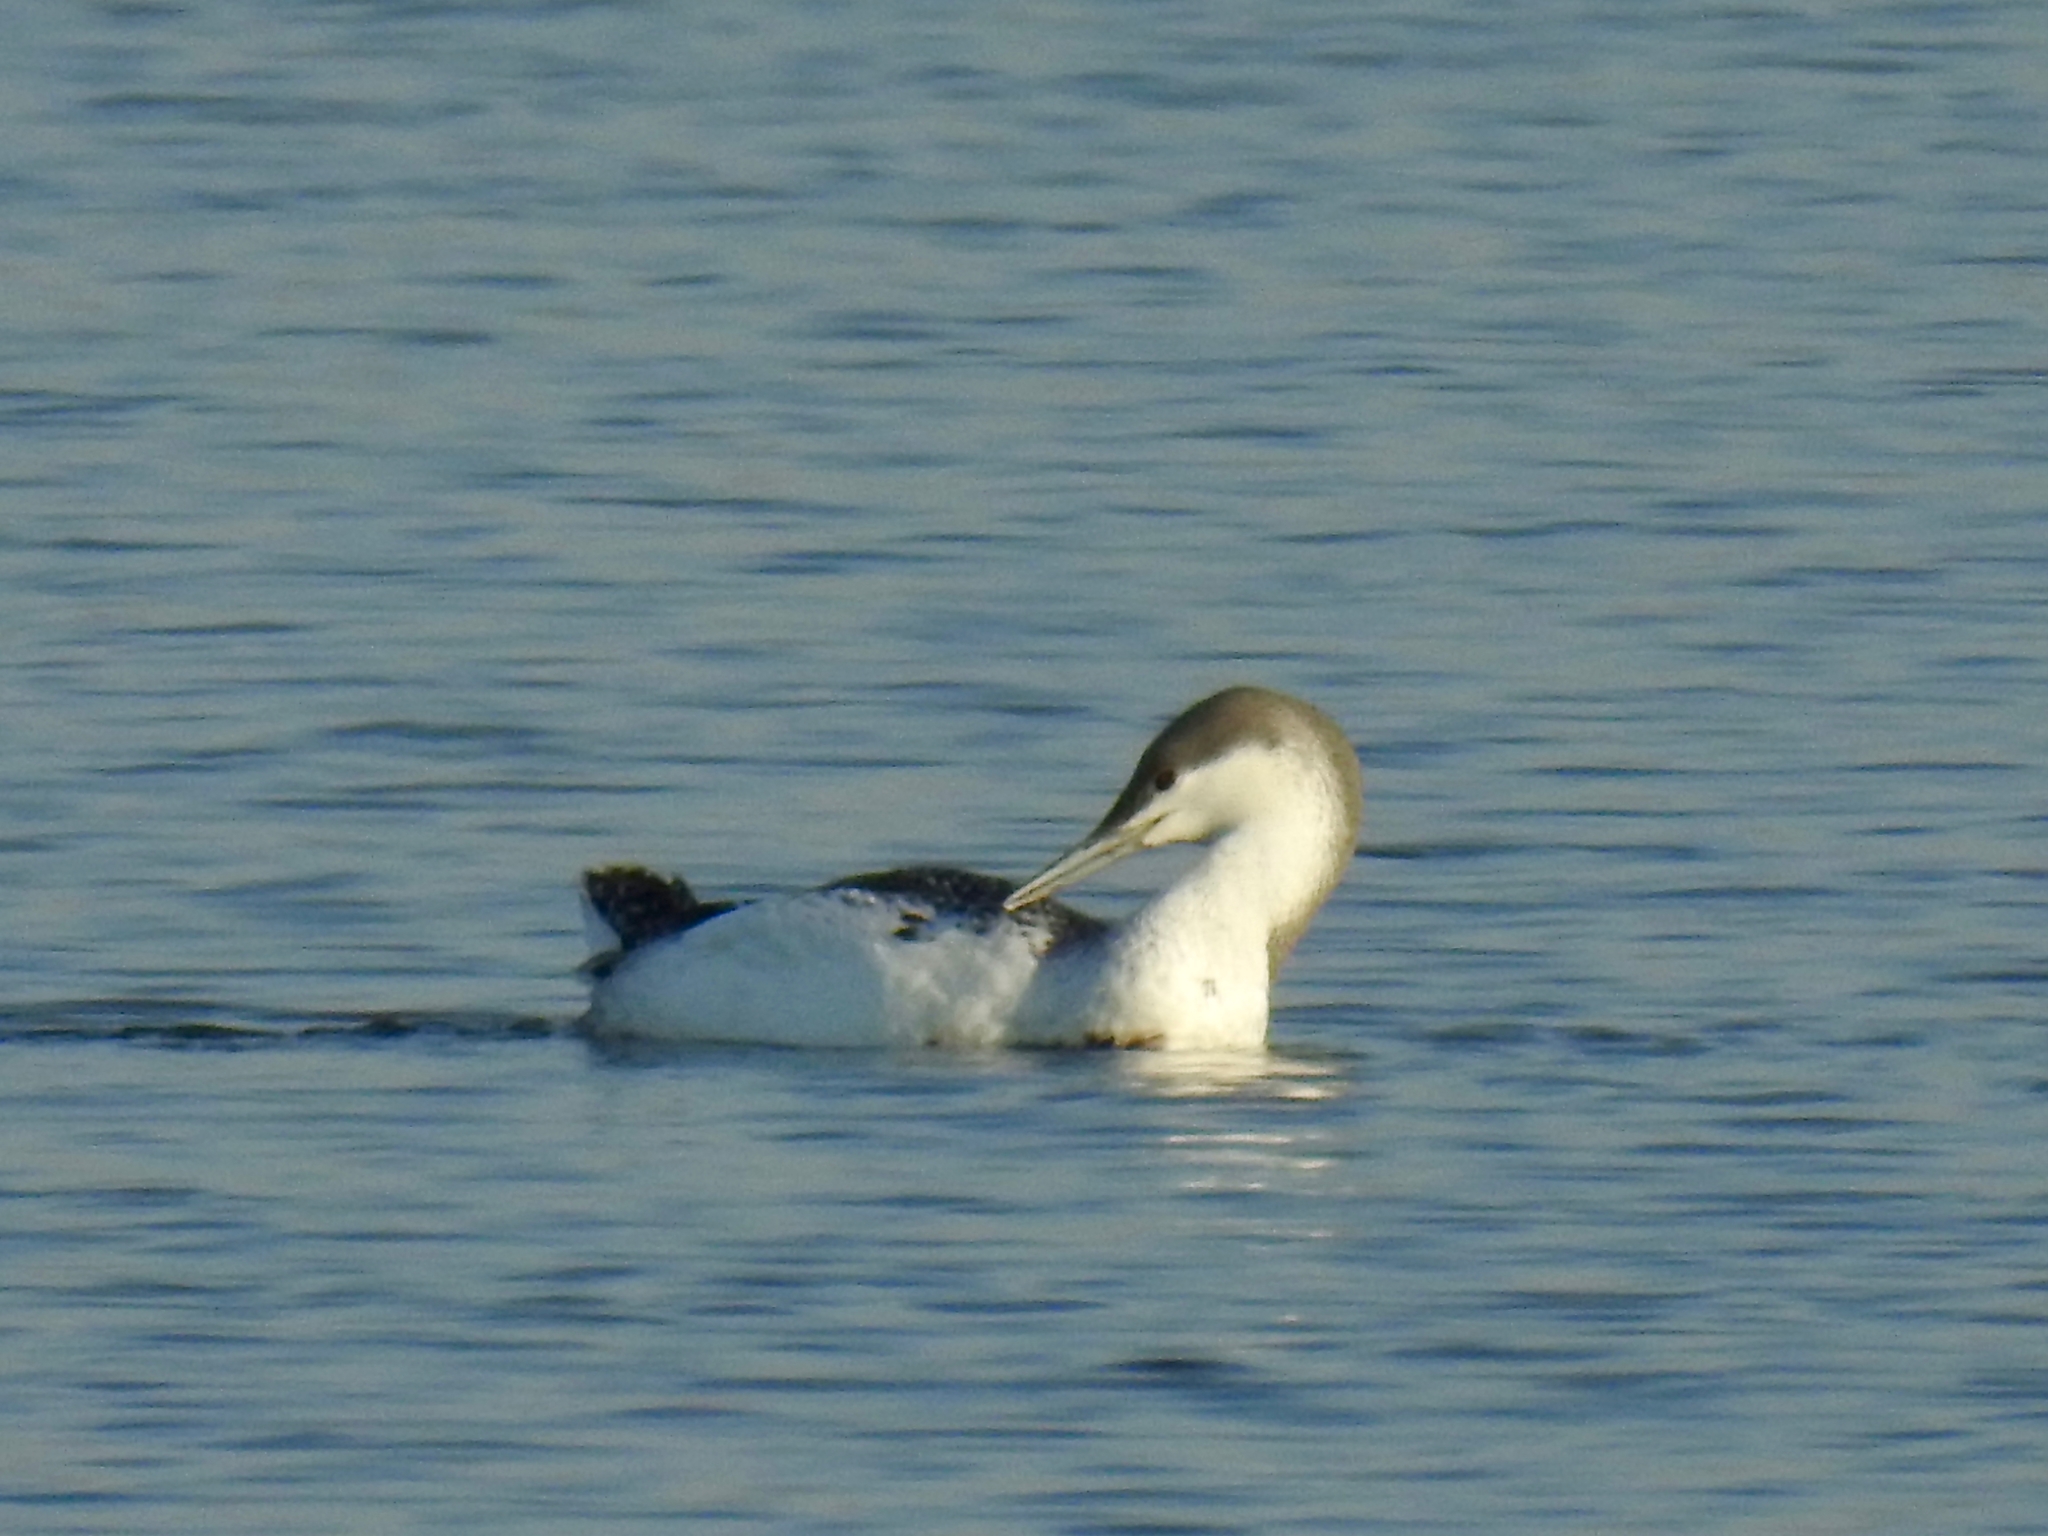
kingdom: Animalia
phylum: Chordata
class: Aves
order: Gaviiformes
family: Gaviidae
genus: Gavia
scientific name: Gavia stellata
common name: Red-throated loon
